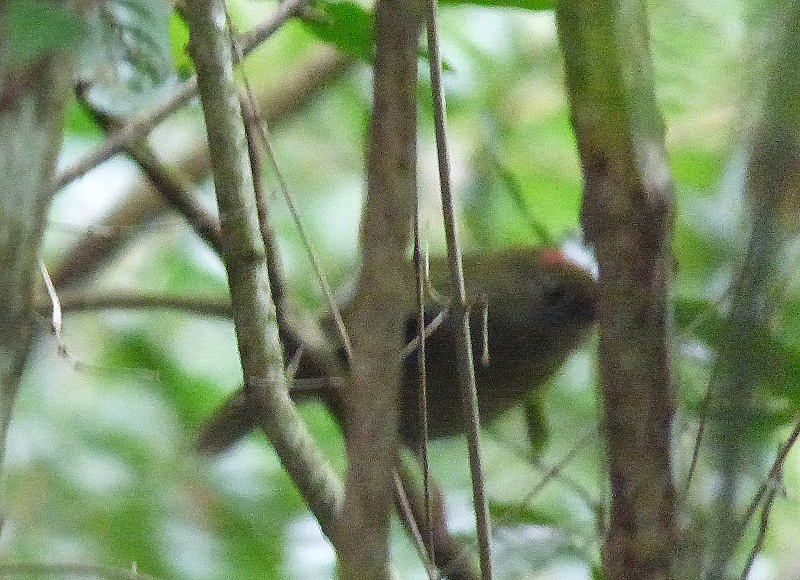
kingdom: Animalia
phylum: Chordata
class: Aves
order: Passeriformes
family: Pipridae
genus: Chiroxiphia
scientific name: Chiroxiphia boliviana
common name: Yungas manakin
